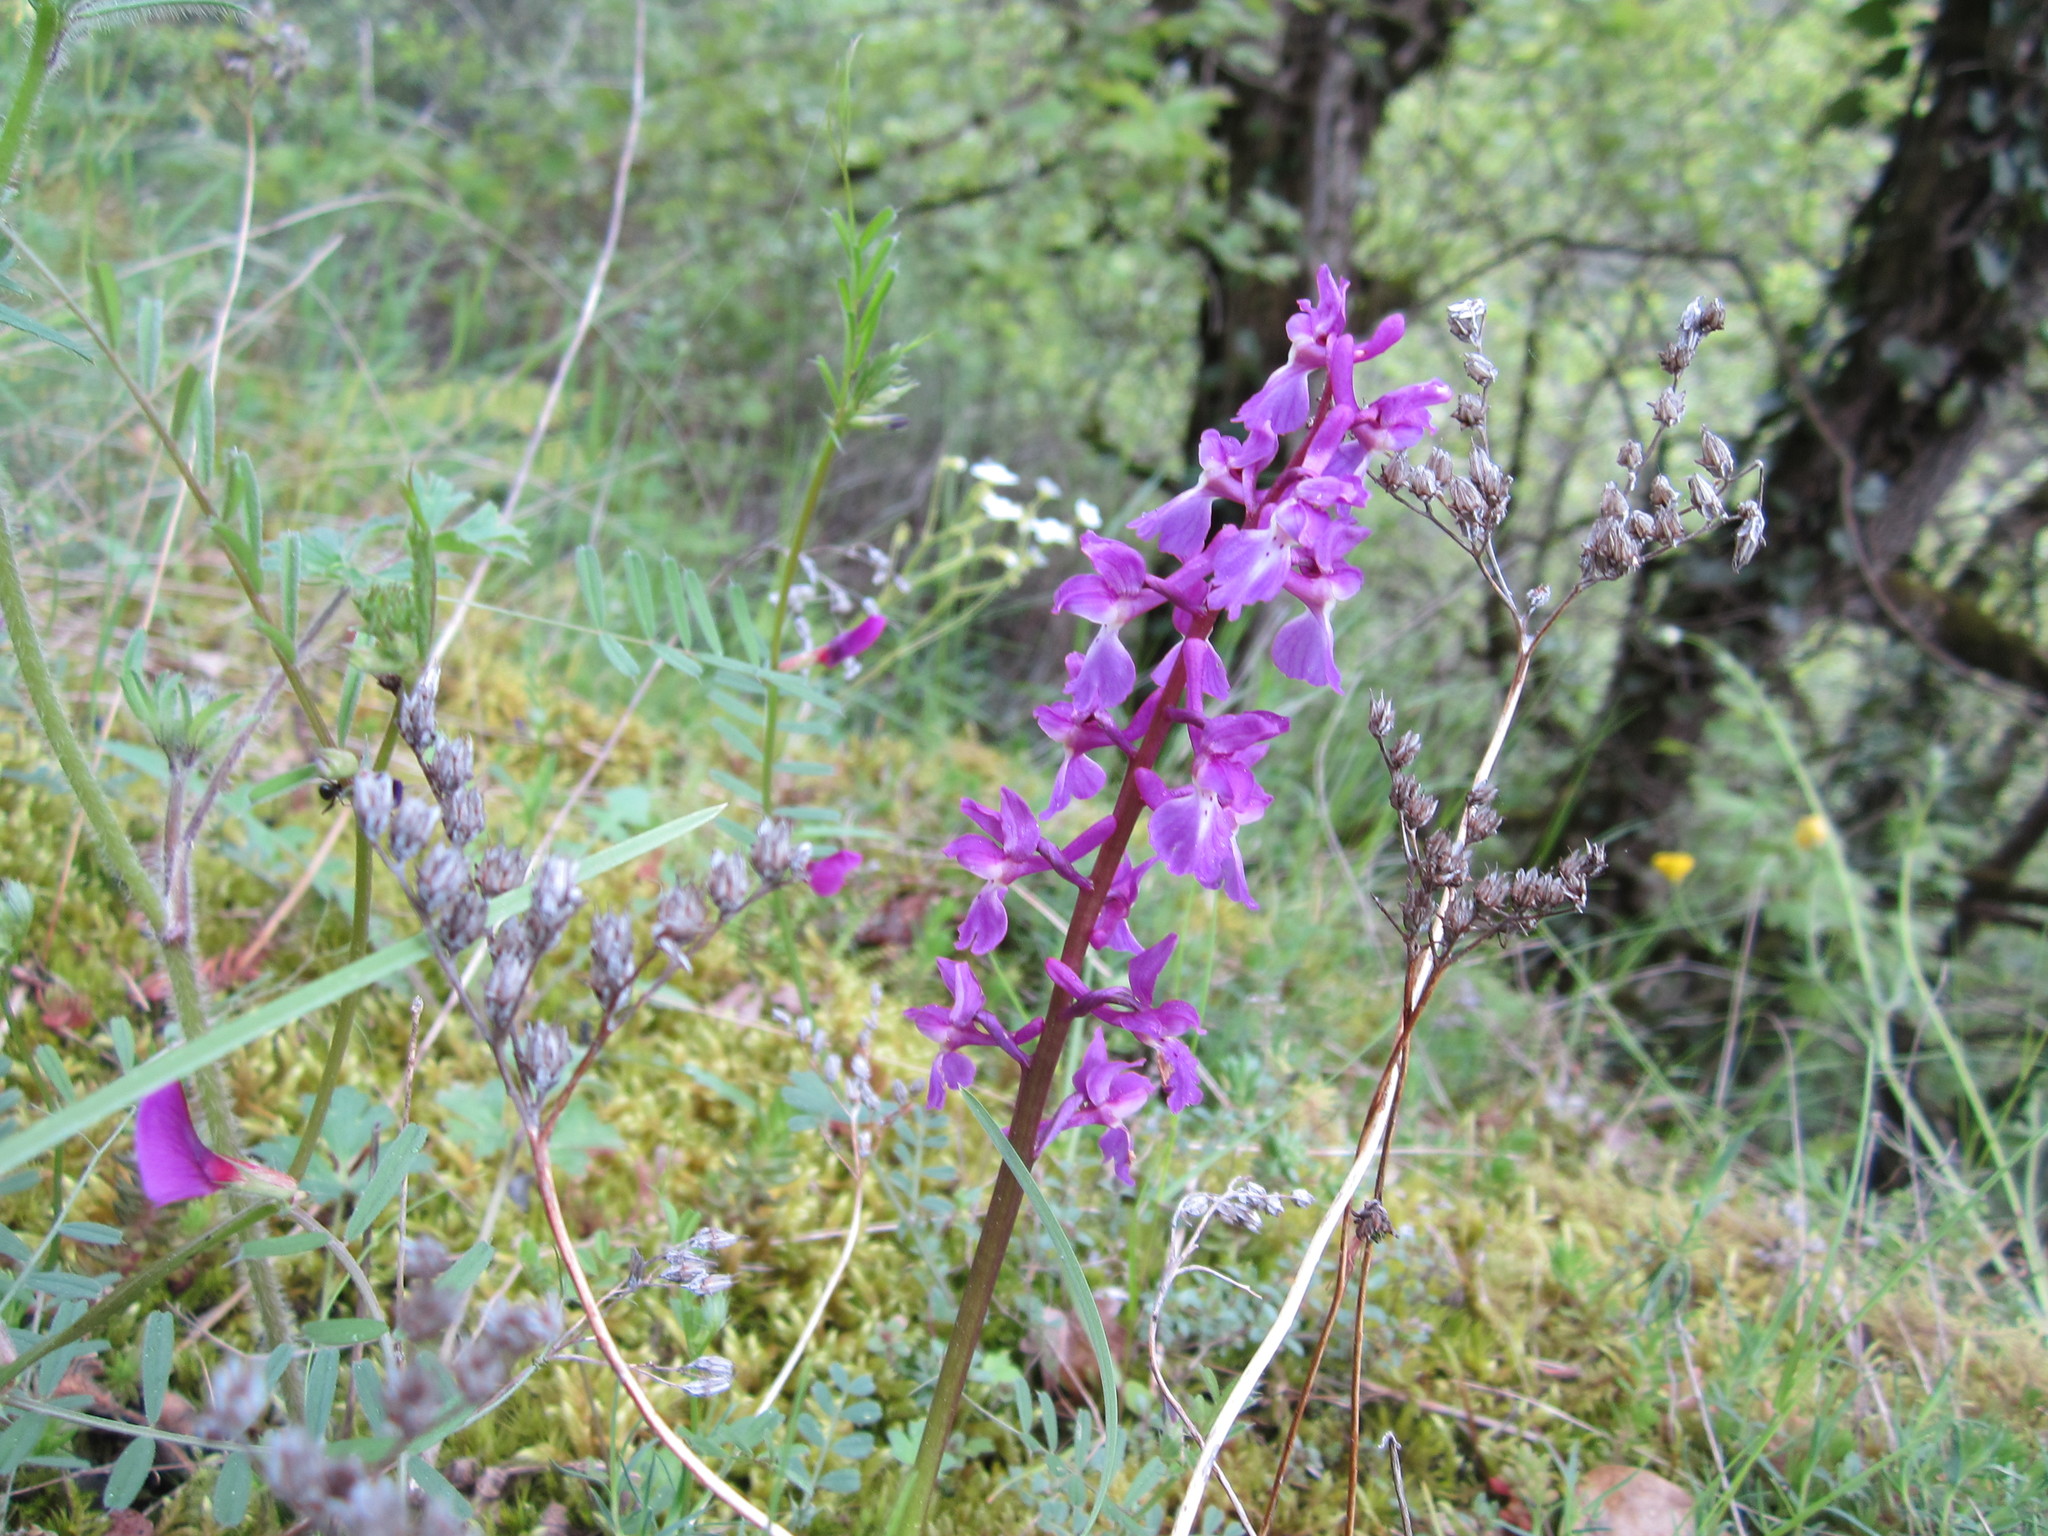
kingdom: Plantae
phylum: Tracheophyta
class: Liliopsida
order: Asparagales
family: Orchidaceae
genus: Orchis
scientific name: Orchis mascula
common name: Early-purple orchid
